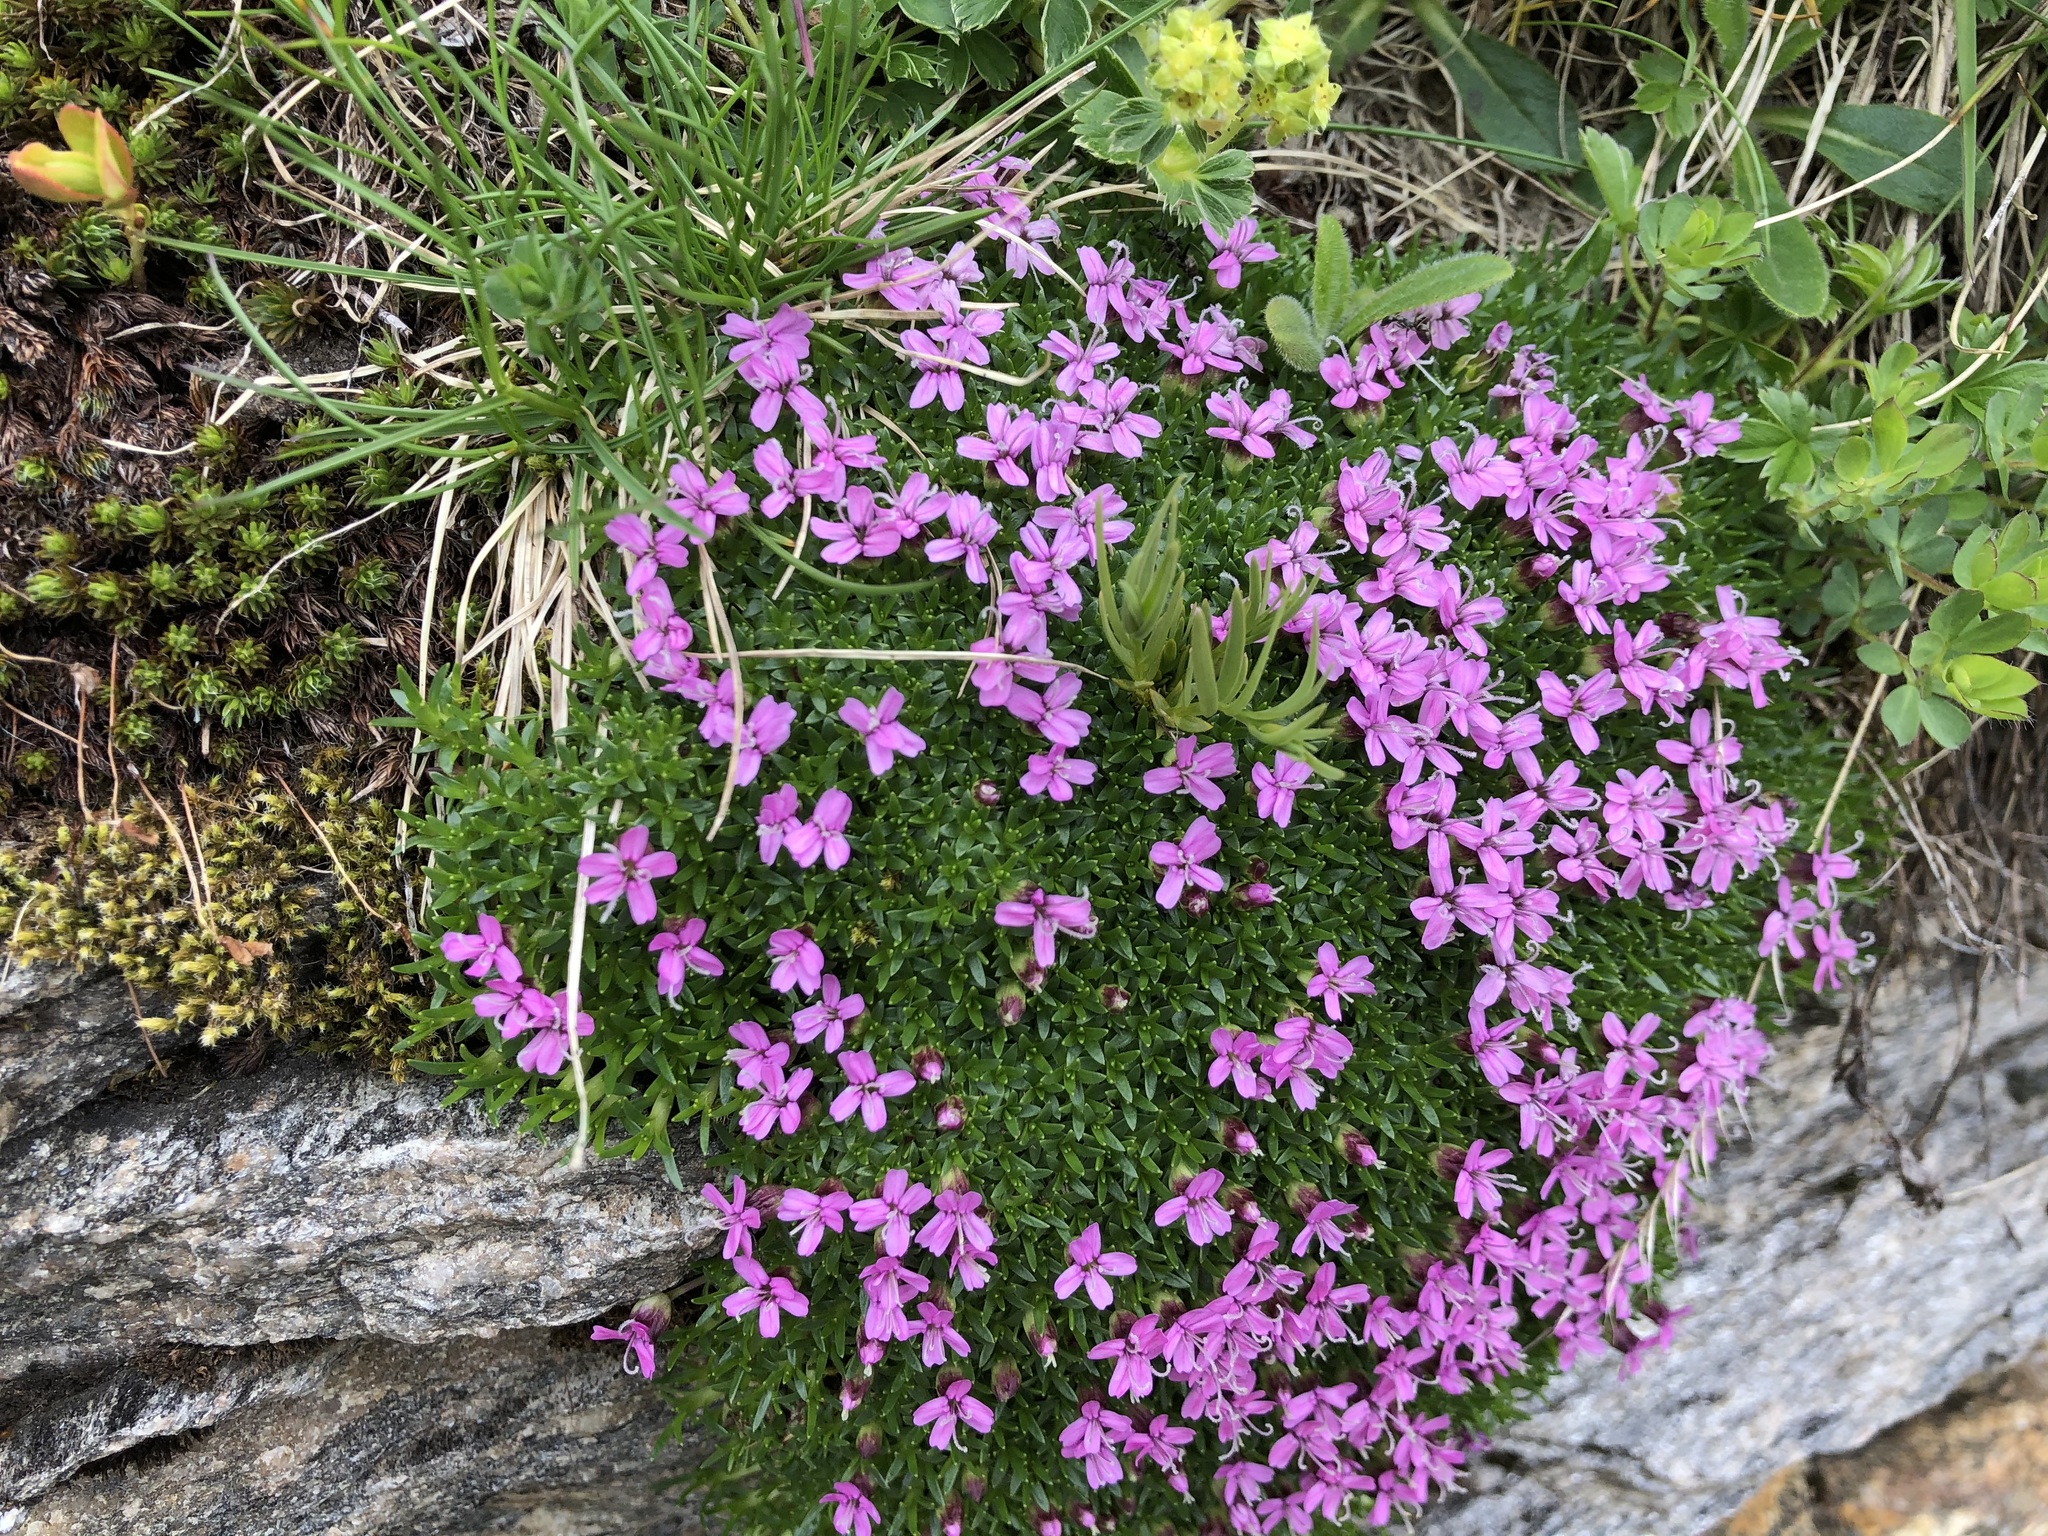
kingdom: Plantae
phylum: Tracheophyta
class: Magnoliopsida
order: Caryophyllales
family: Caryophyllaceae
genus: Silene
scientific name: Silene acaulis
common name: Moss campion
